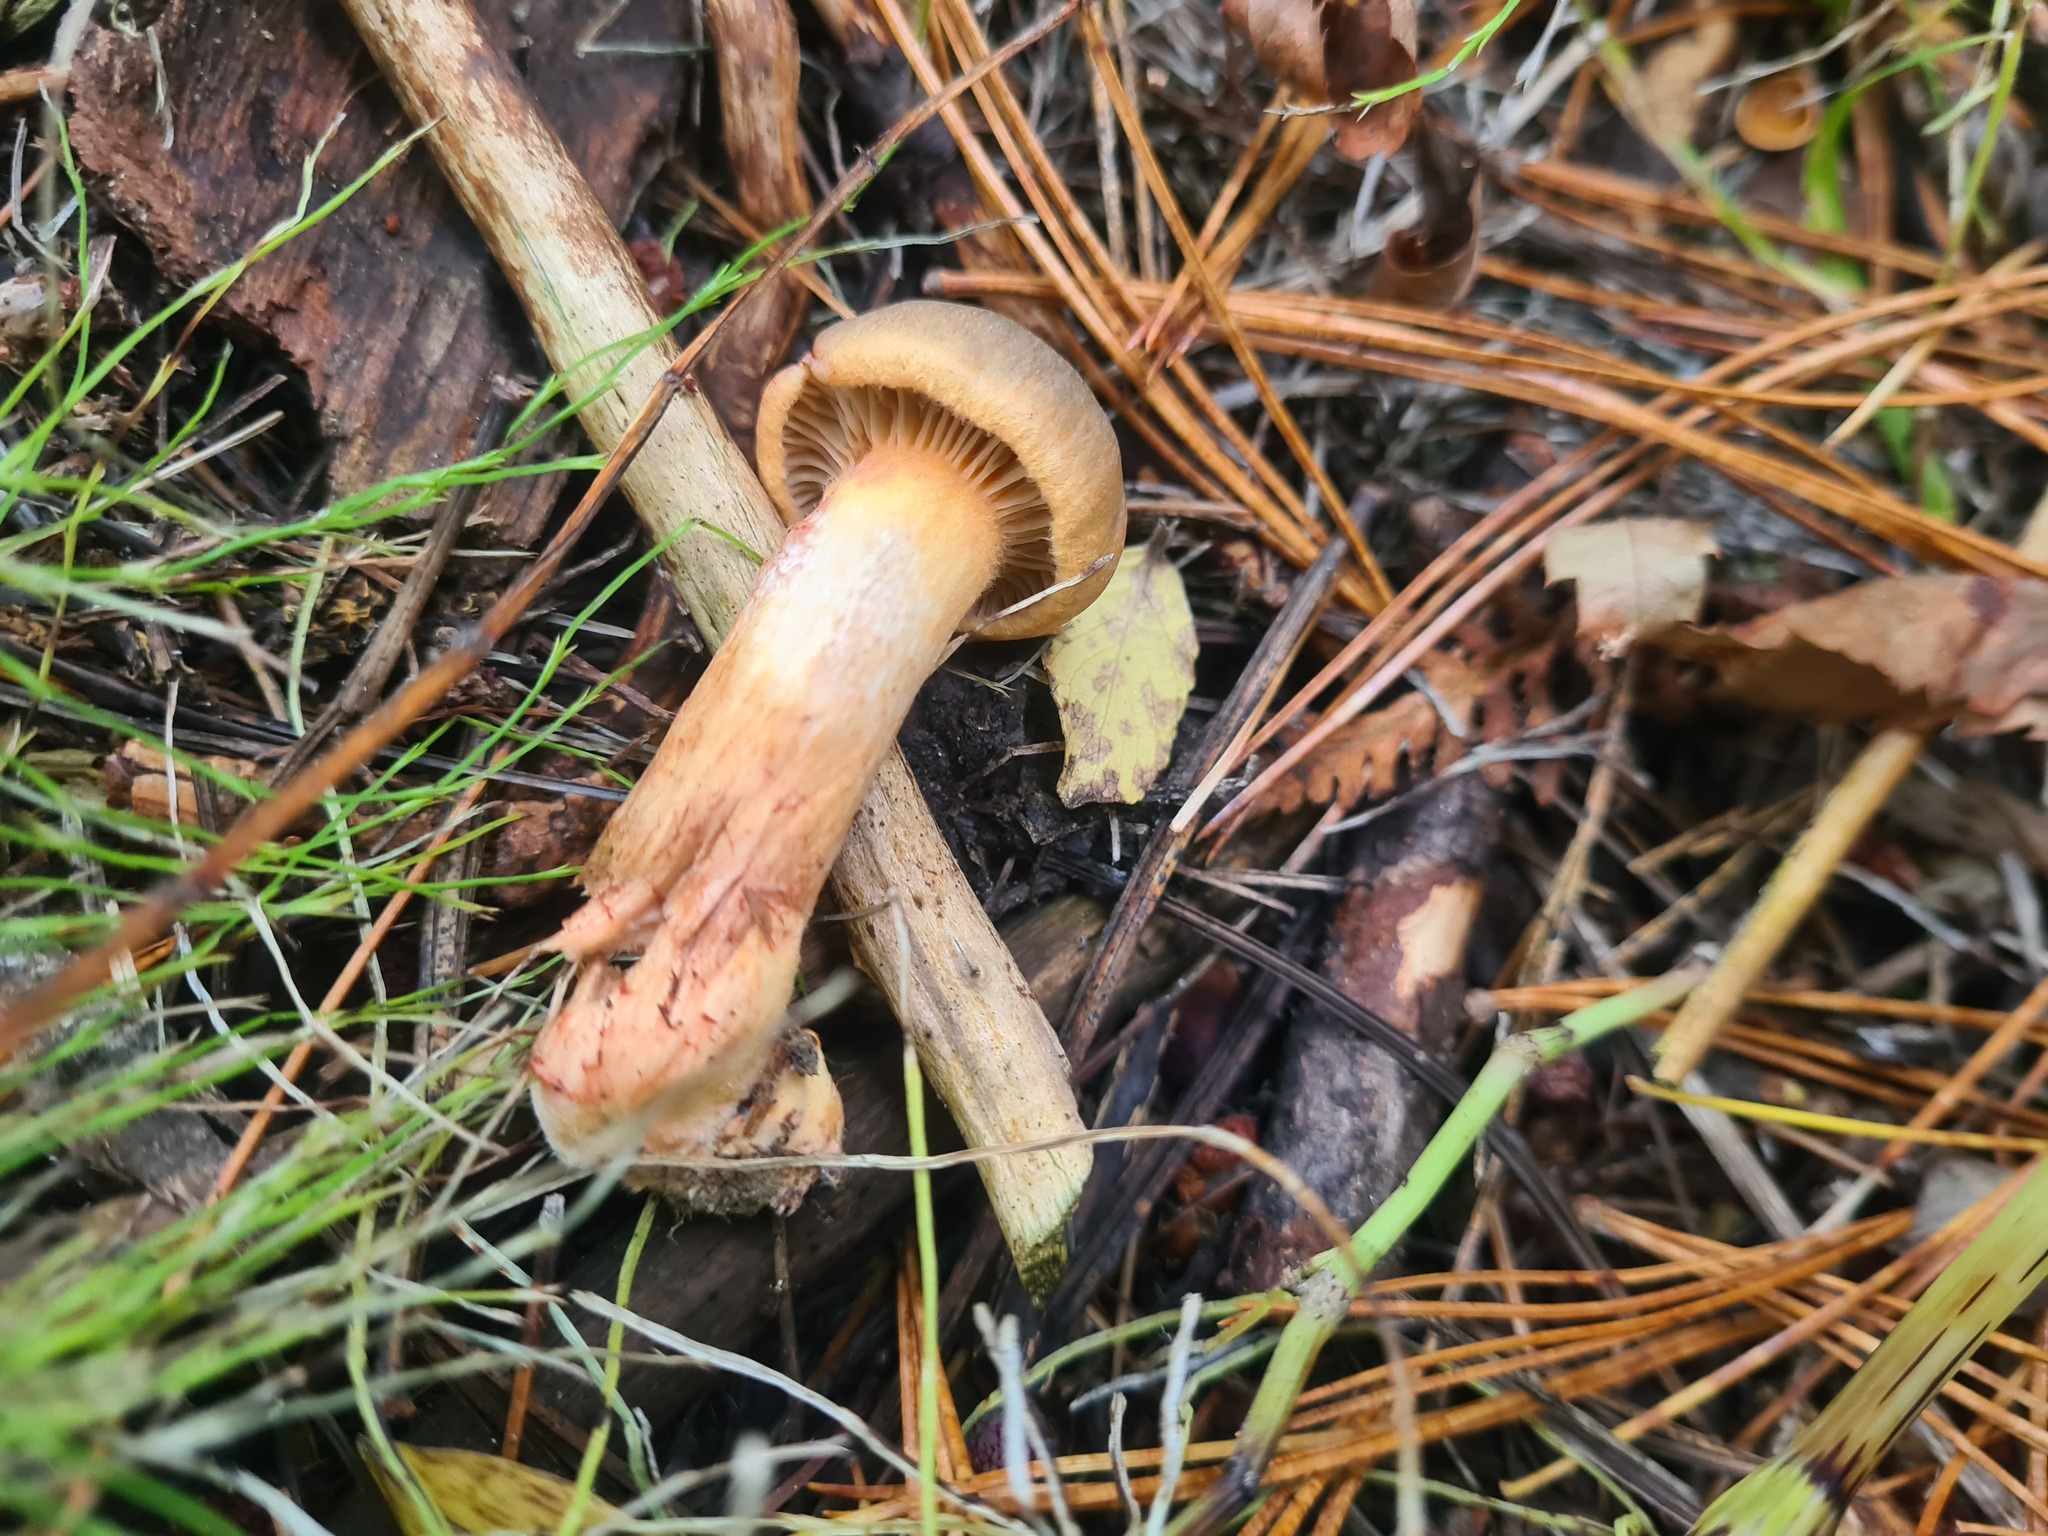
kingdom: Fungi
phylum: Basidiomycota
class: Agaricomycetes
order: Boletales
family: Gomphidiaceae
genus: Chroogomphus
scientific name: Chroogomphus rutilus
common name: Copper spike
